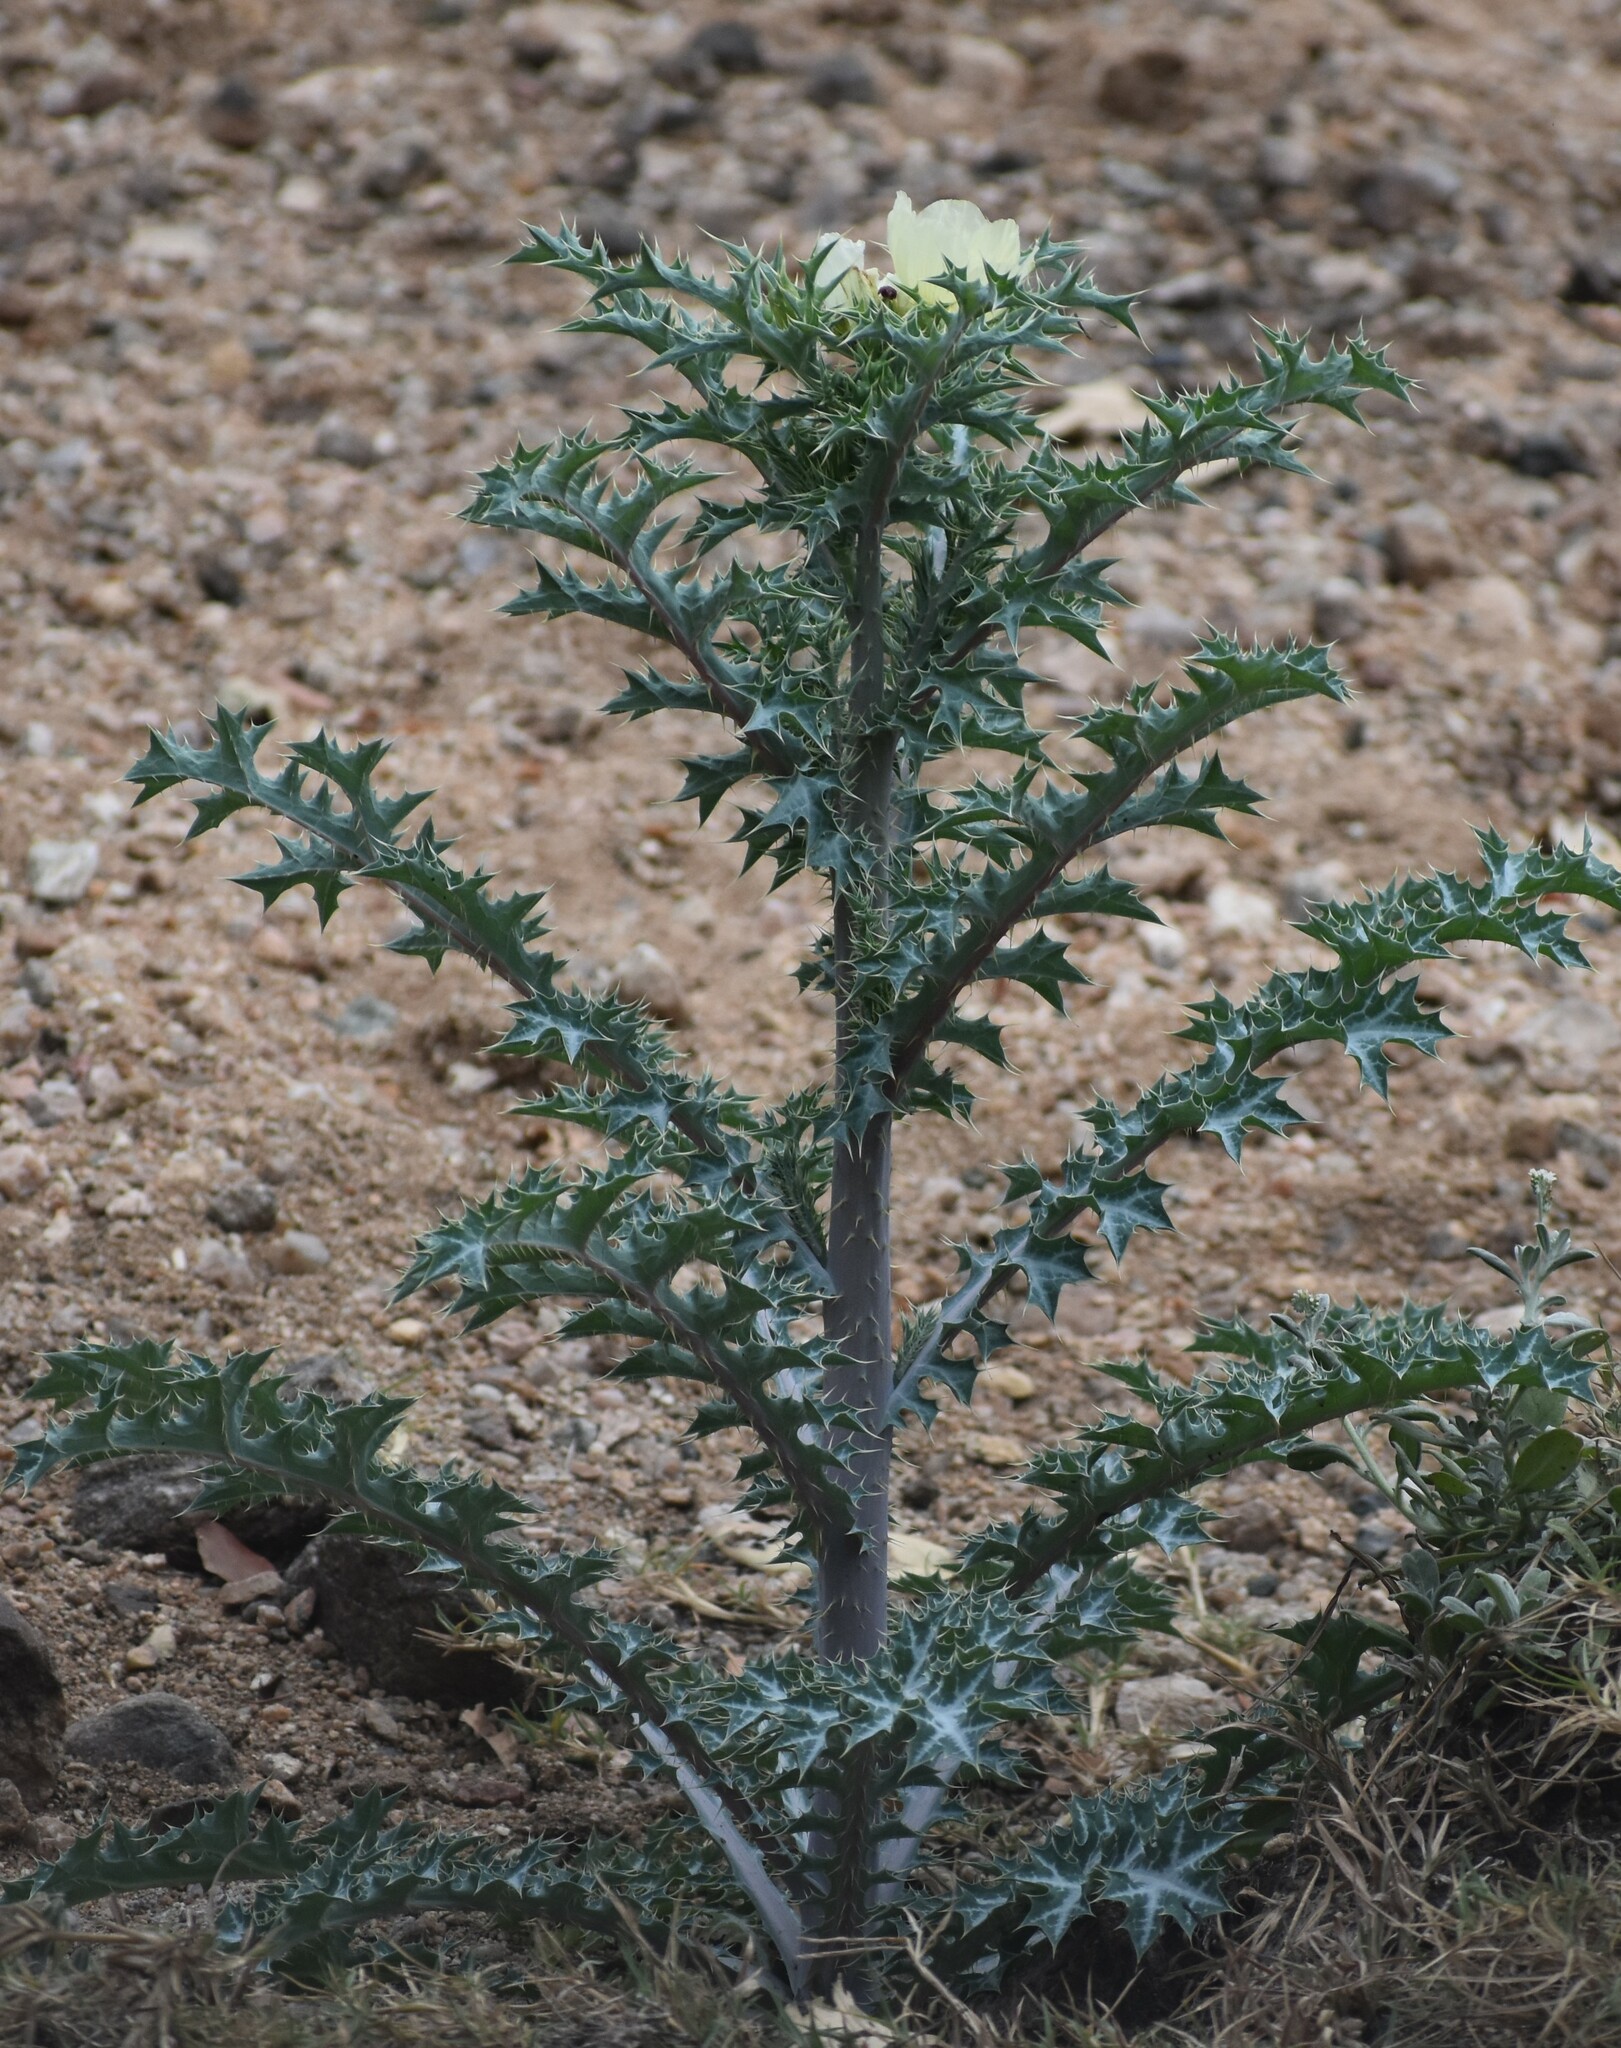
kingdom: Plantae
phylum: Tracheophyta
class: Magnoliopsida
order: Ranunculales
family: Papaveraceae
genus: Argemone
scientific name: Argemone ochroleuca
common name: White-flower mexican-poppy
